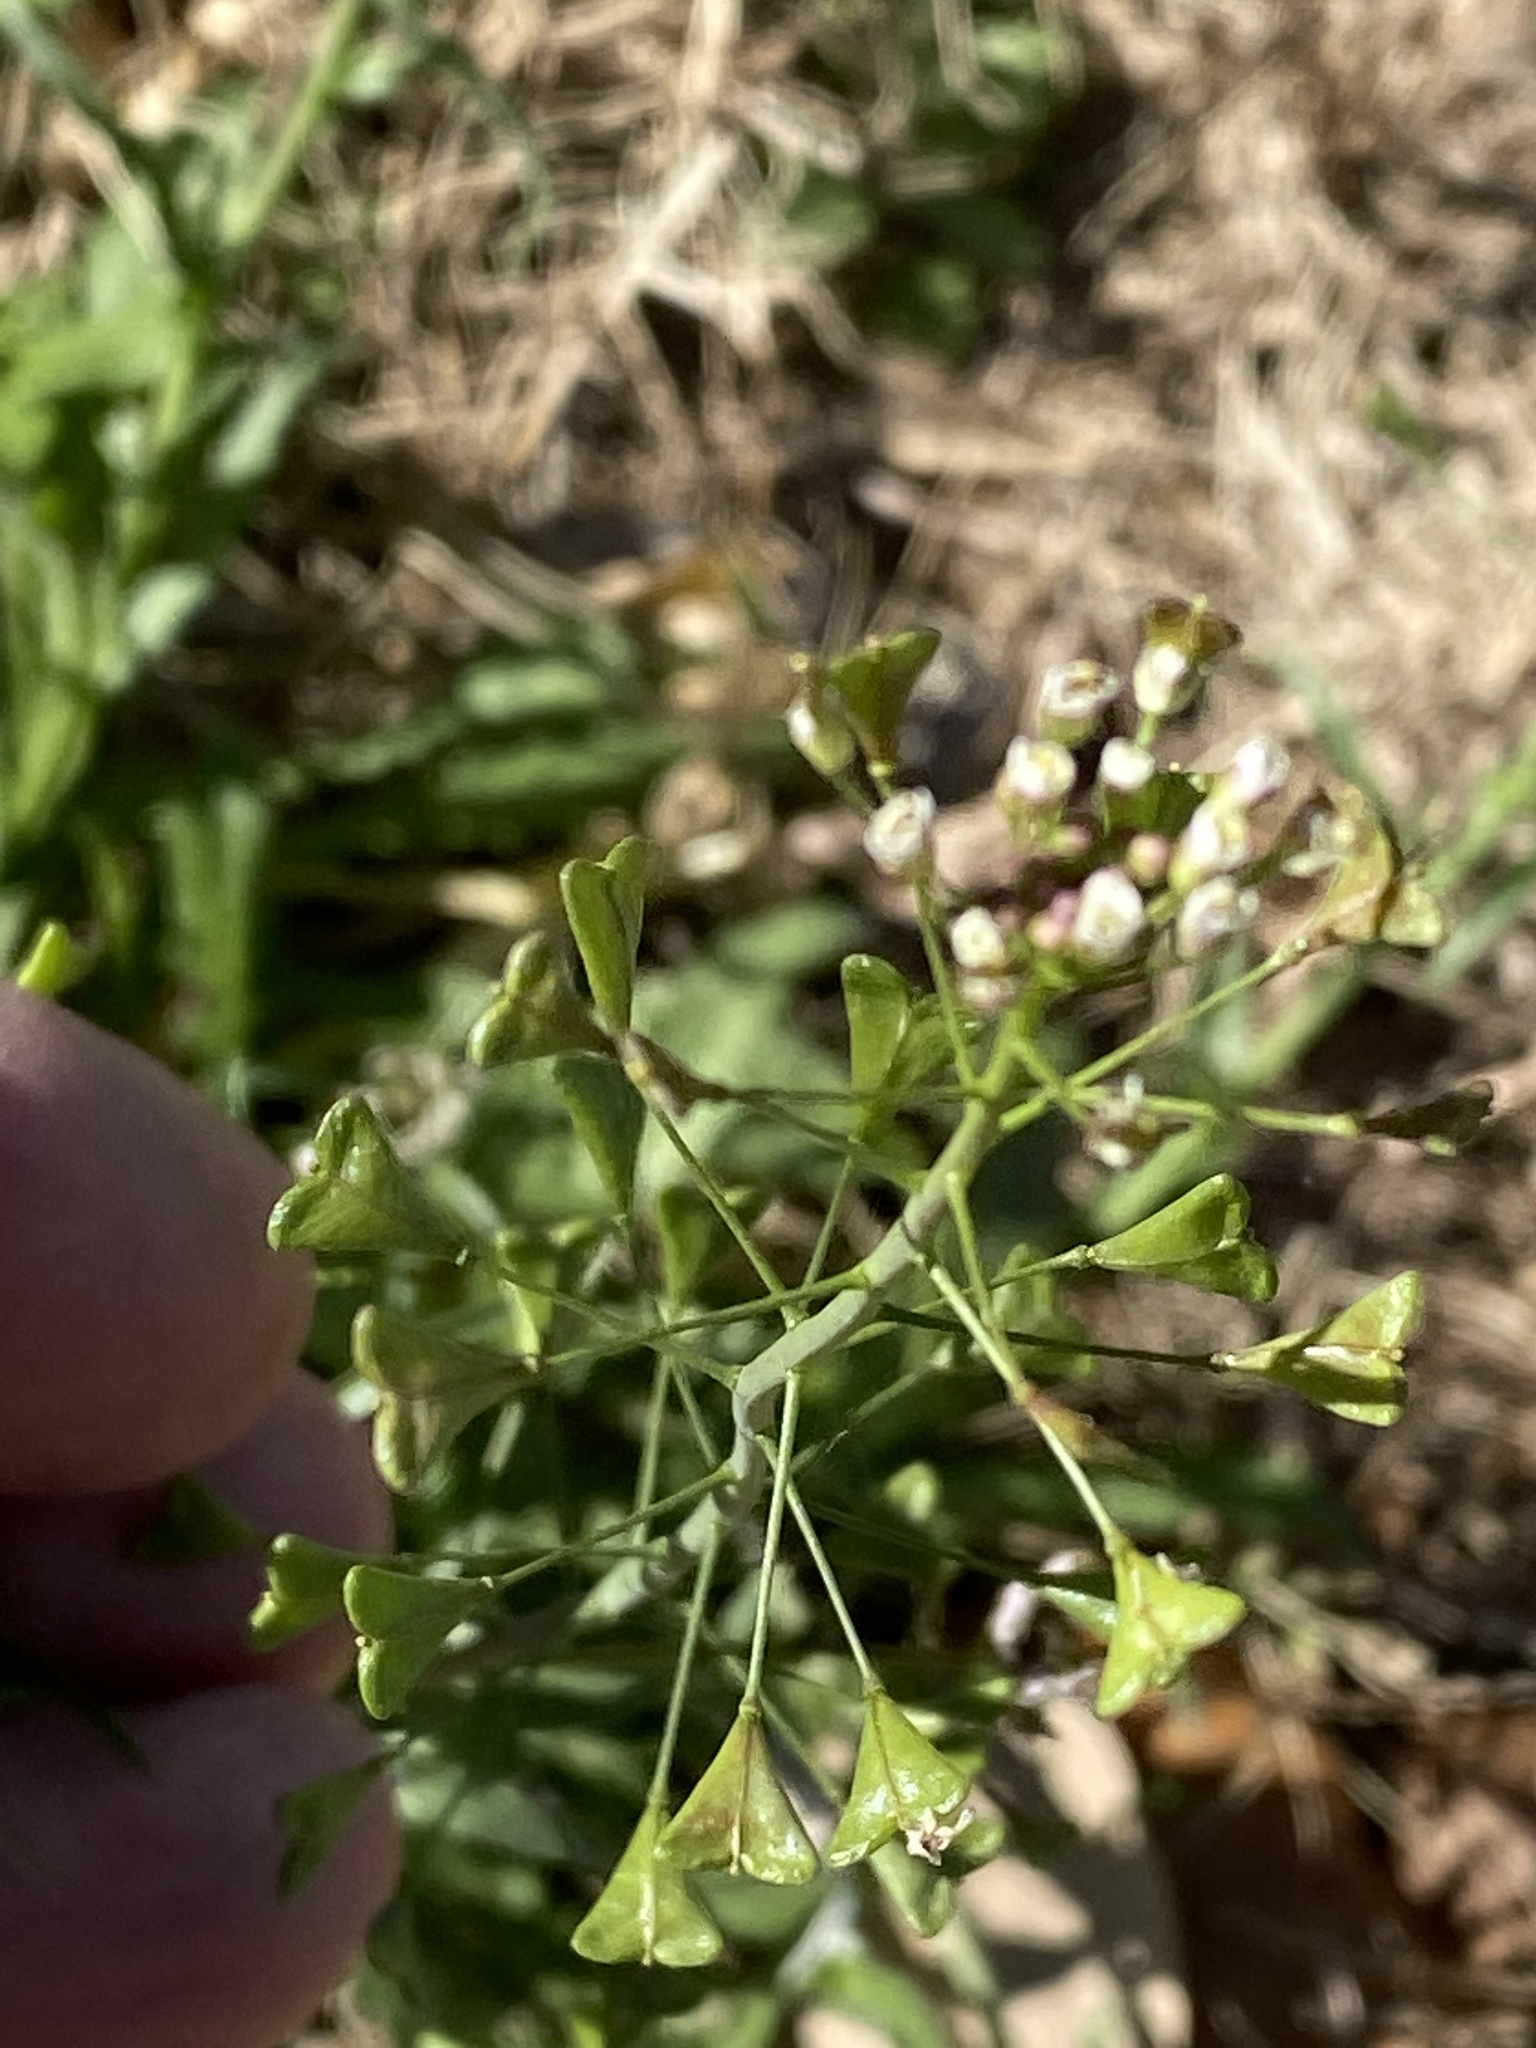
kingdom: Plantae
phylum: Tracheophyta
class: Magnoliopsida
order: Brassicales
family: Brassicaceae
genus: Capsella
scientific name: Capsella bursa-pastoris
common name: Shepherd's purse
